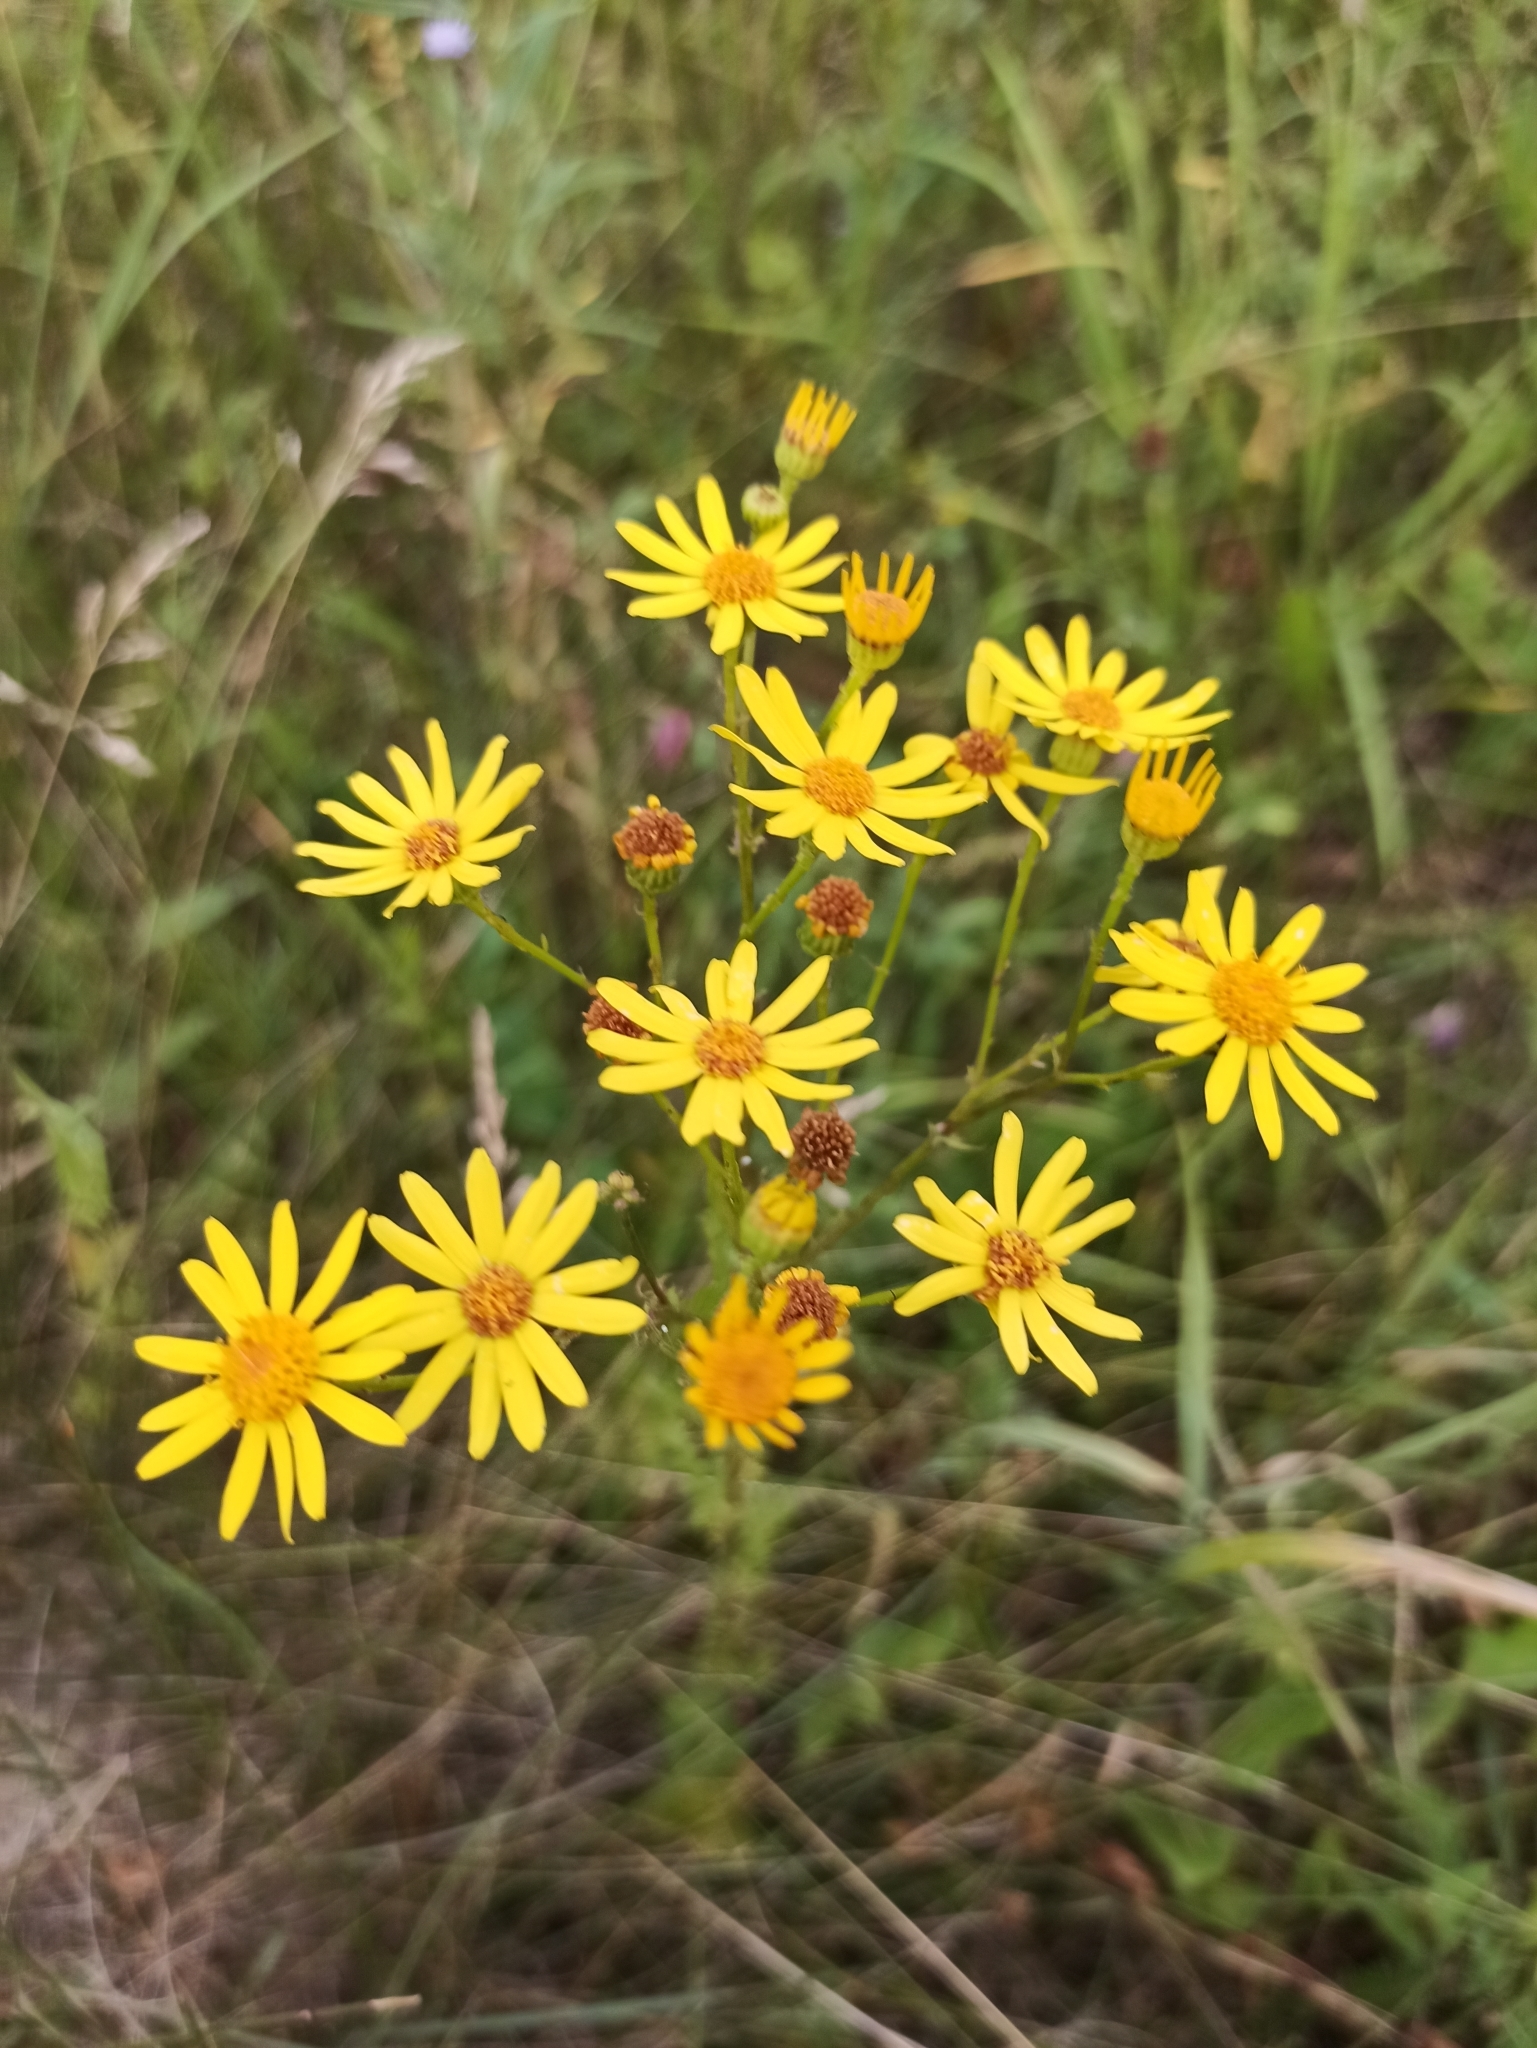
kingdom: Plantae
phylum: Tracheophyta
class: Magnoliopsida
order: Asterales
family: Asteraceae
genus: Jacobaea
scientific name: Jacobaea vulgaris
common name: Stinking willie
